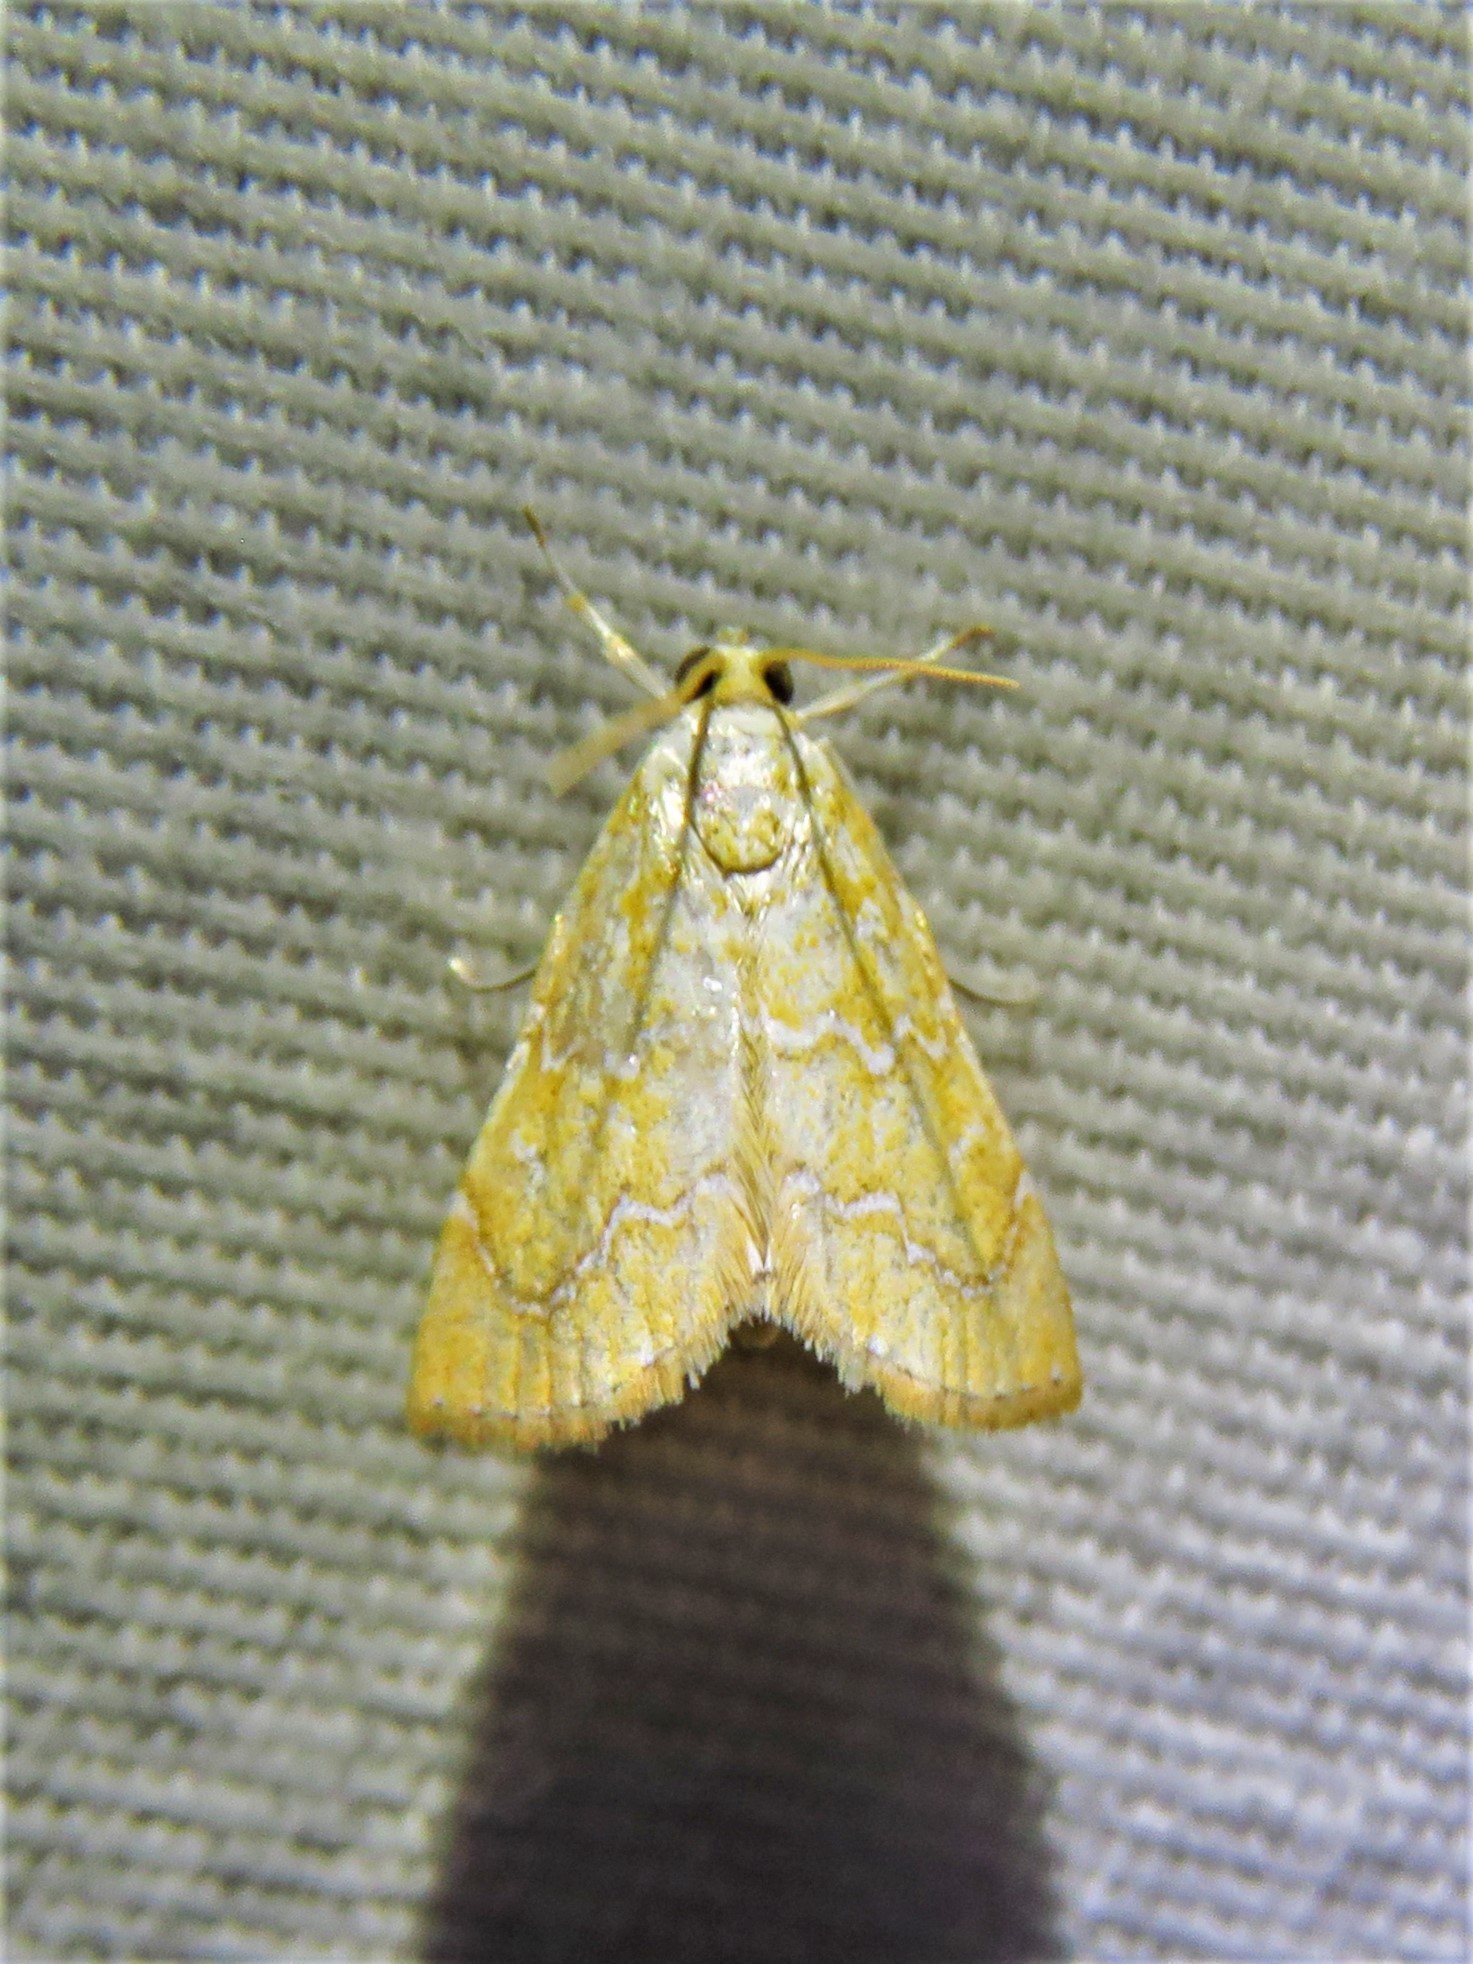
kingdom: Animalia
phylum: Arthropoda
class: Insecta
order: Lepidoptera
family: Crambidae
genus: Glaphyria
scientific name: Glaphyria sesquistrialis
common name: White-roped glaphyria
